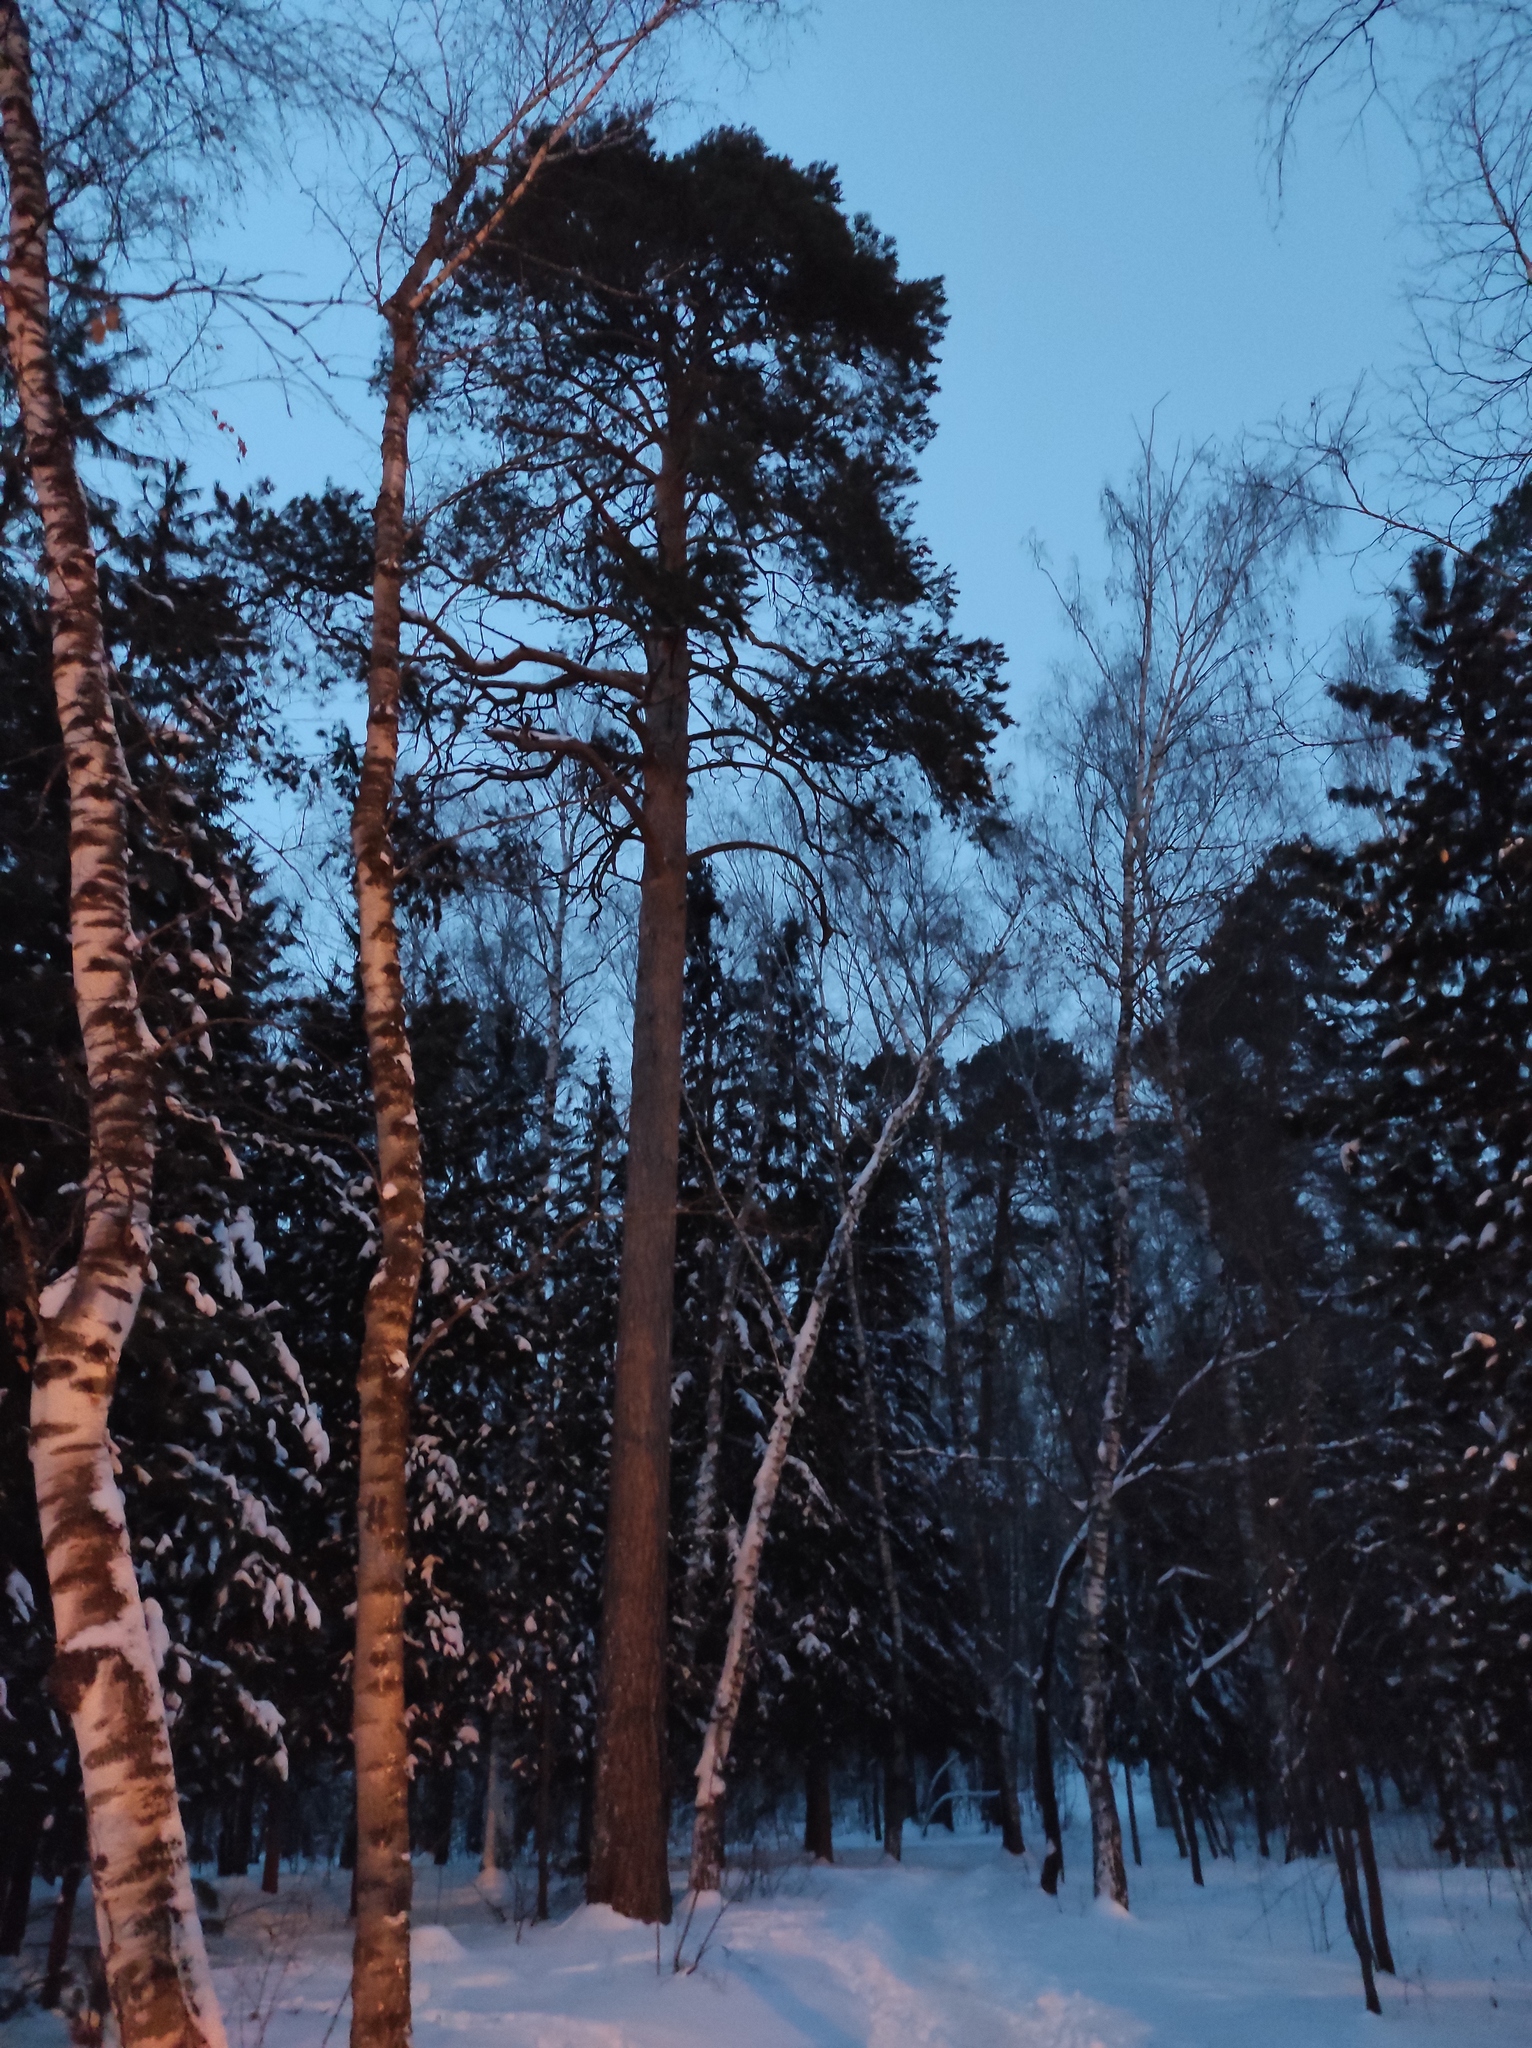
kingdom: Plantae
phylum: Tracheophyta
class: Pinopsida
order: Pinales
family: Pinaceae
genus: Pinus
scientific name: Pinus sylvestris
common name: Scots pine
